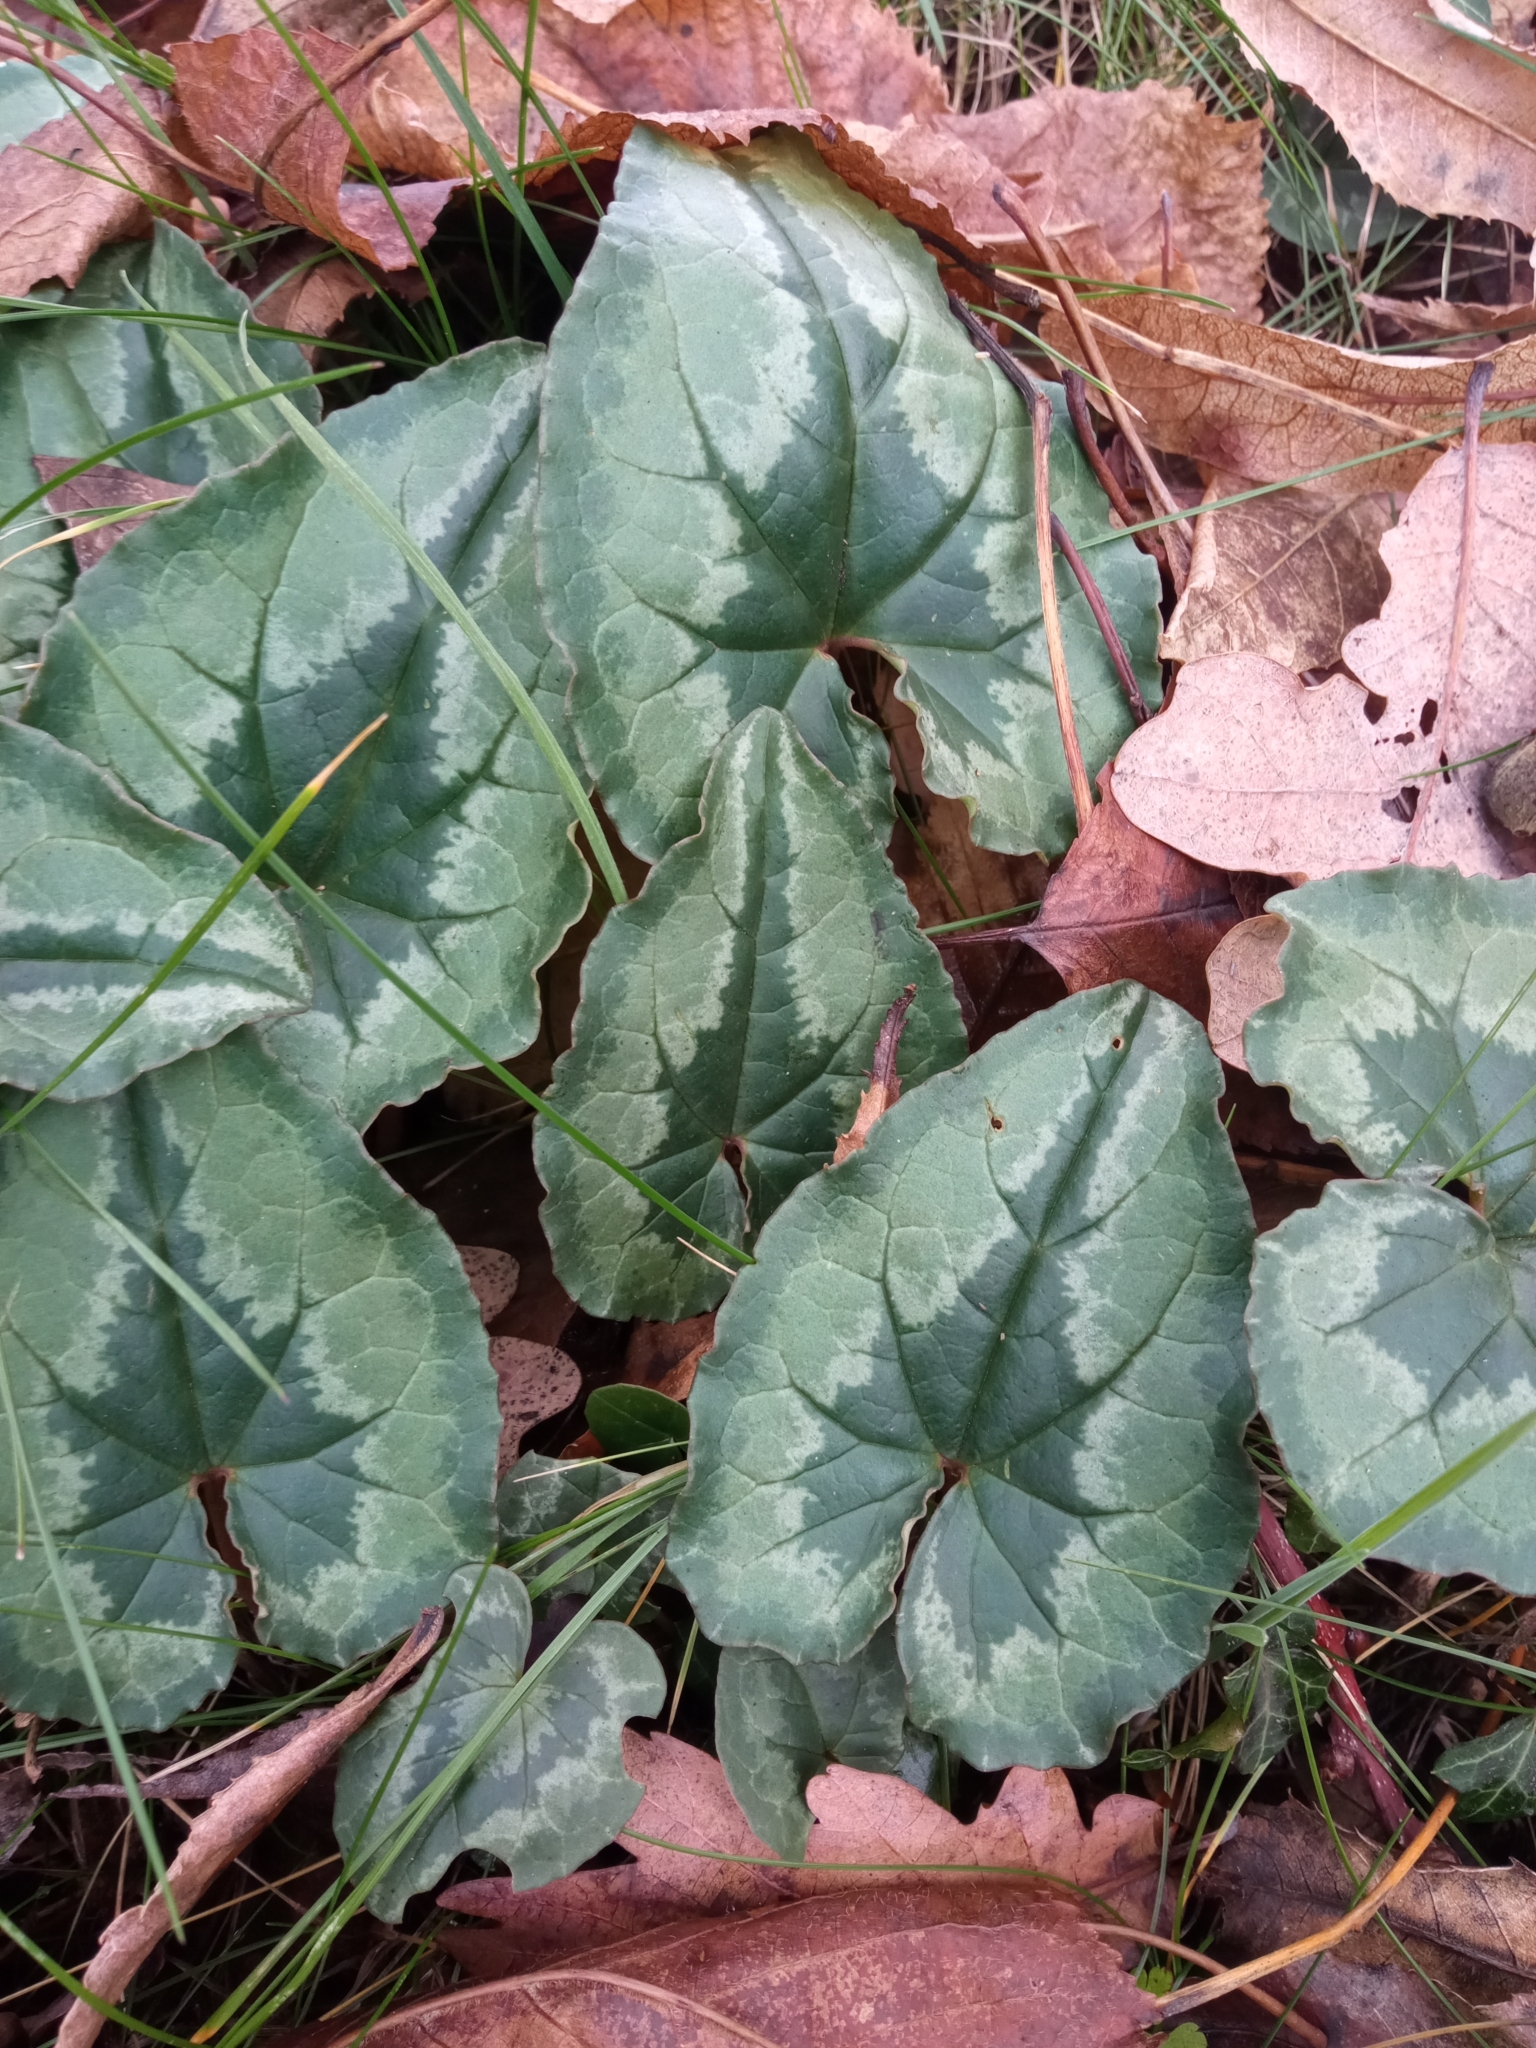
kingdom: Plantae
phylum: Tracheophyta
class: Magnoliopsida
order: Ericales
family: Primulaceae
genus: Cyclamen
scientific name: Cyclamen hederifolium
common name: Sowbread
